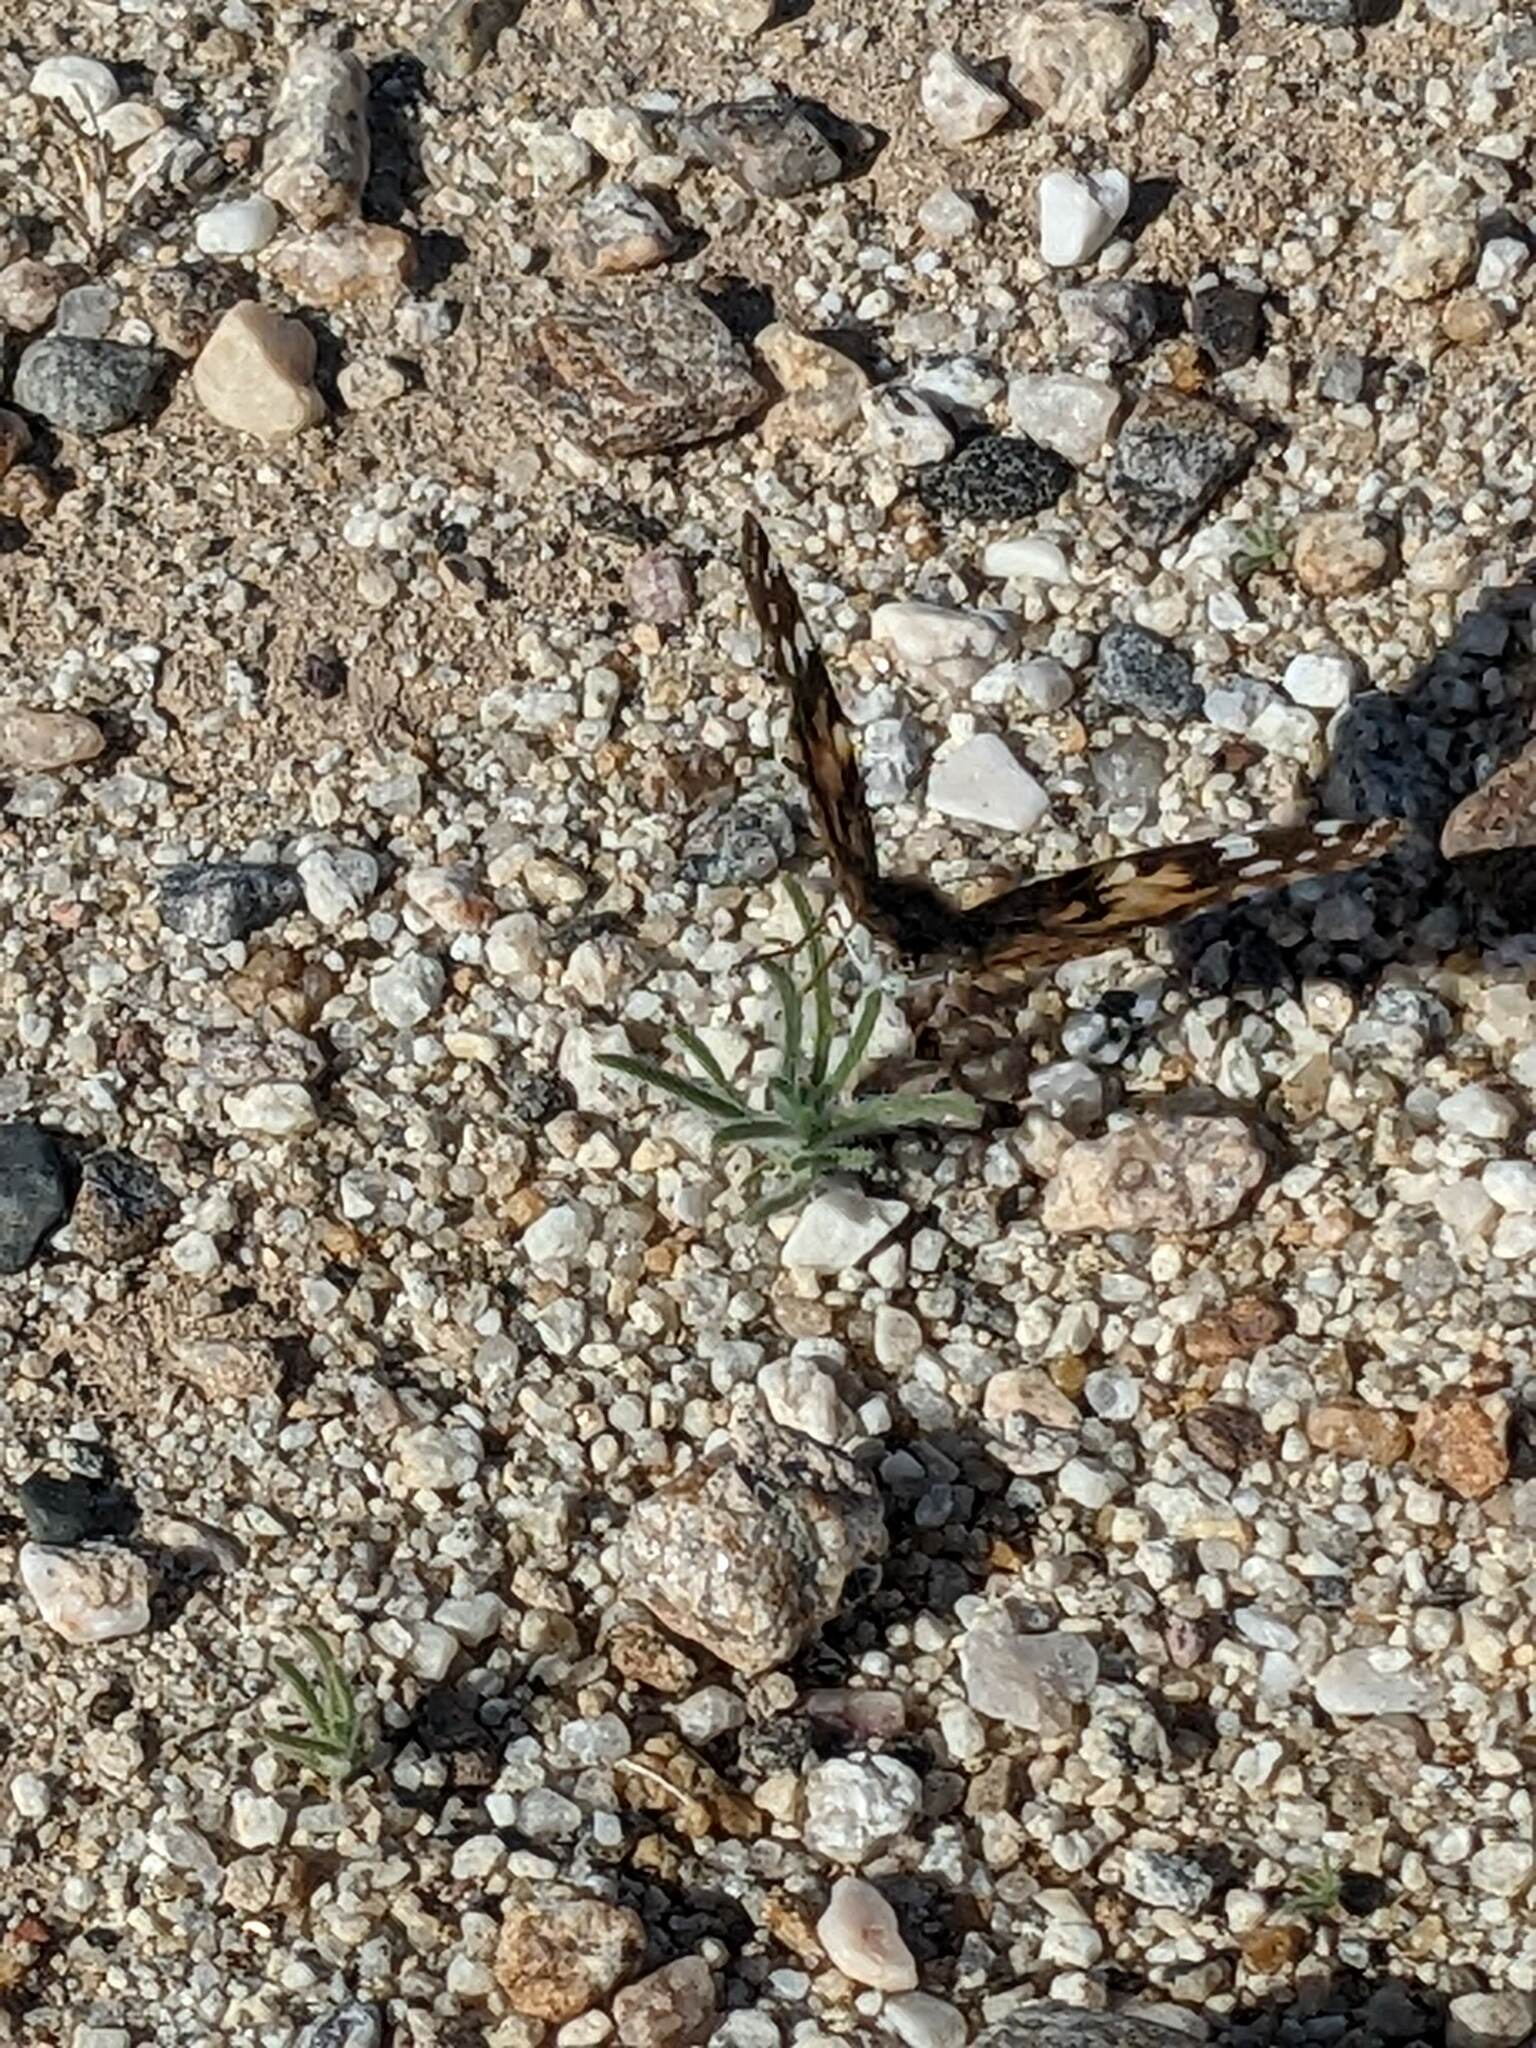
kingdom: Animalia
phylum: Arthropoda
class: Insecta
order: Lepidoptera
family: Nymphalidae
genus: Vanessa
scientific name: Vanessa cardui
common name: Painted lady
